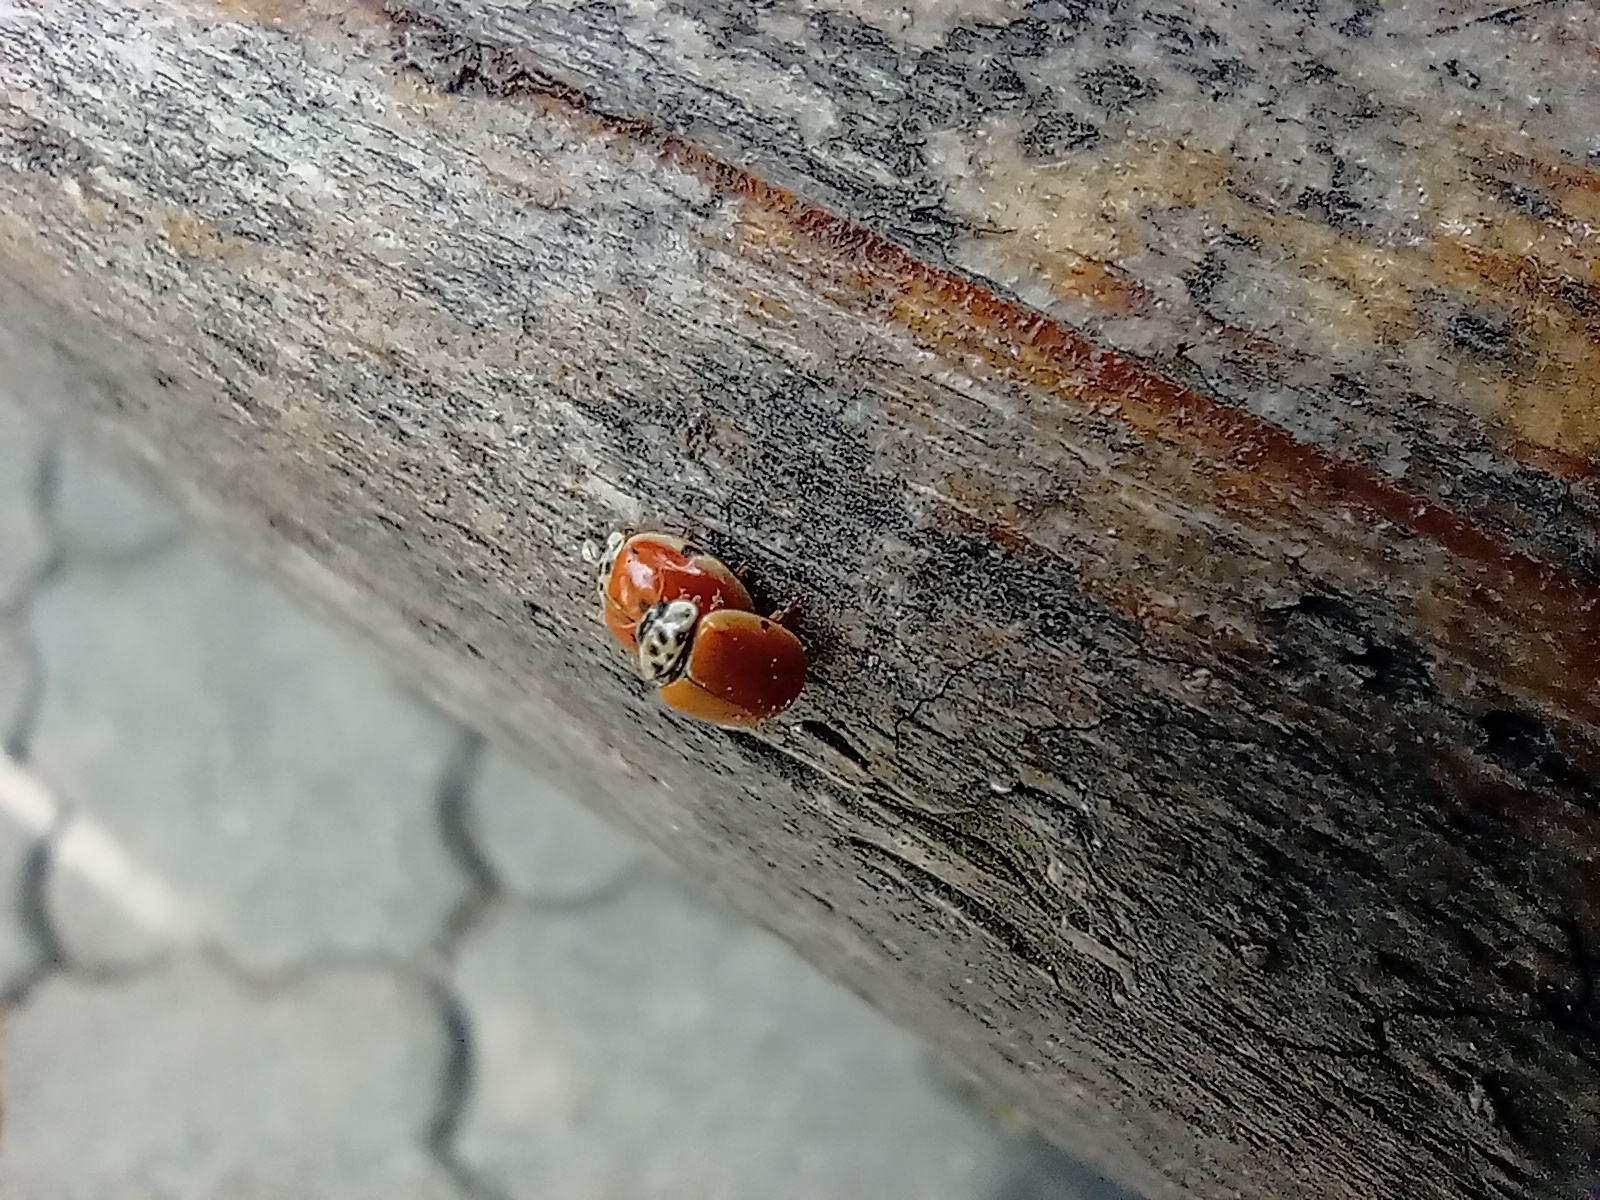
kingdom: Animalia
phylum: Arthropoda
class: Insecta
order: Coleoptera
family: Coccinellidae
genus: Adalia
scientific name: Adalia decempunctata
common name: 10-spot ladybird
